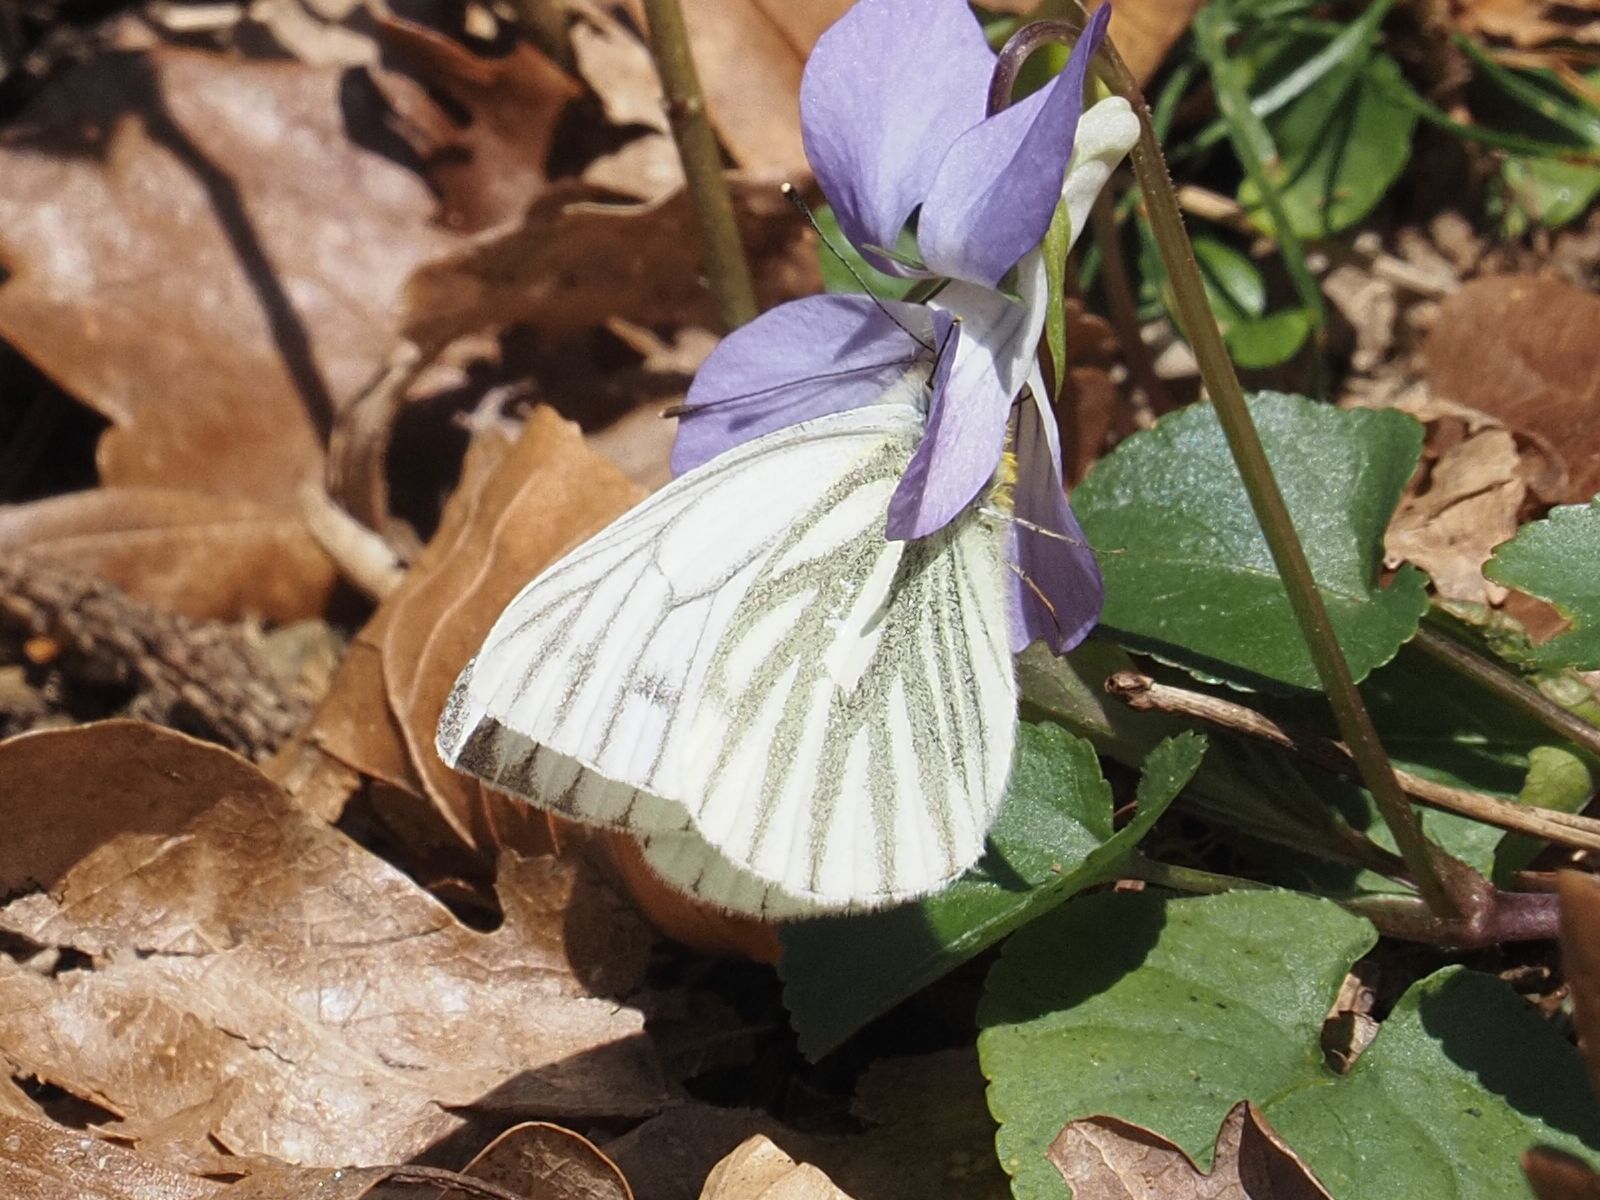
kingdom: Animalia
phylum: Arthropoda
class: Insecta
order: Lepidoptera
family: Pieridae
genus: Pieris
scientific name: Pieris napi
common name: Green-veined white
